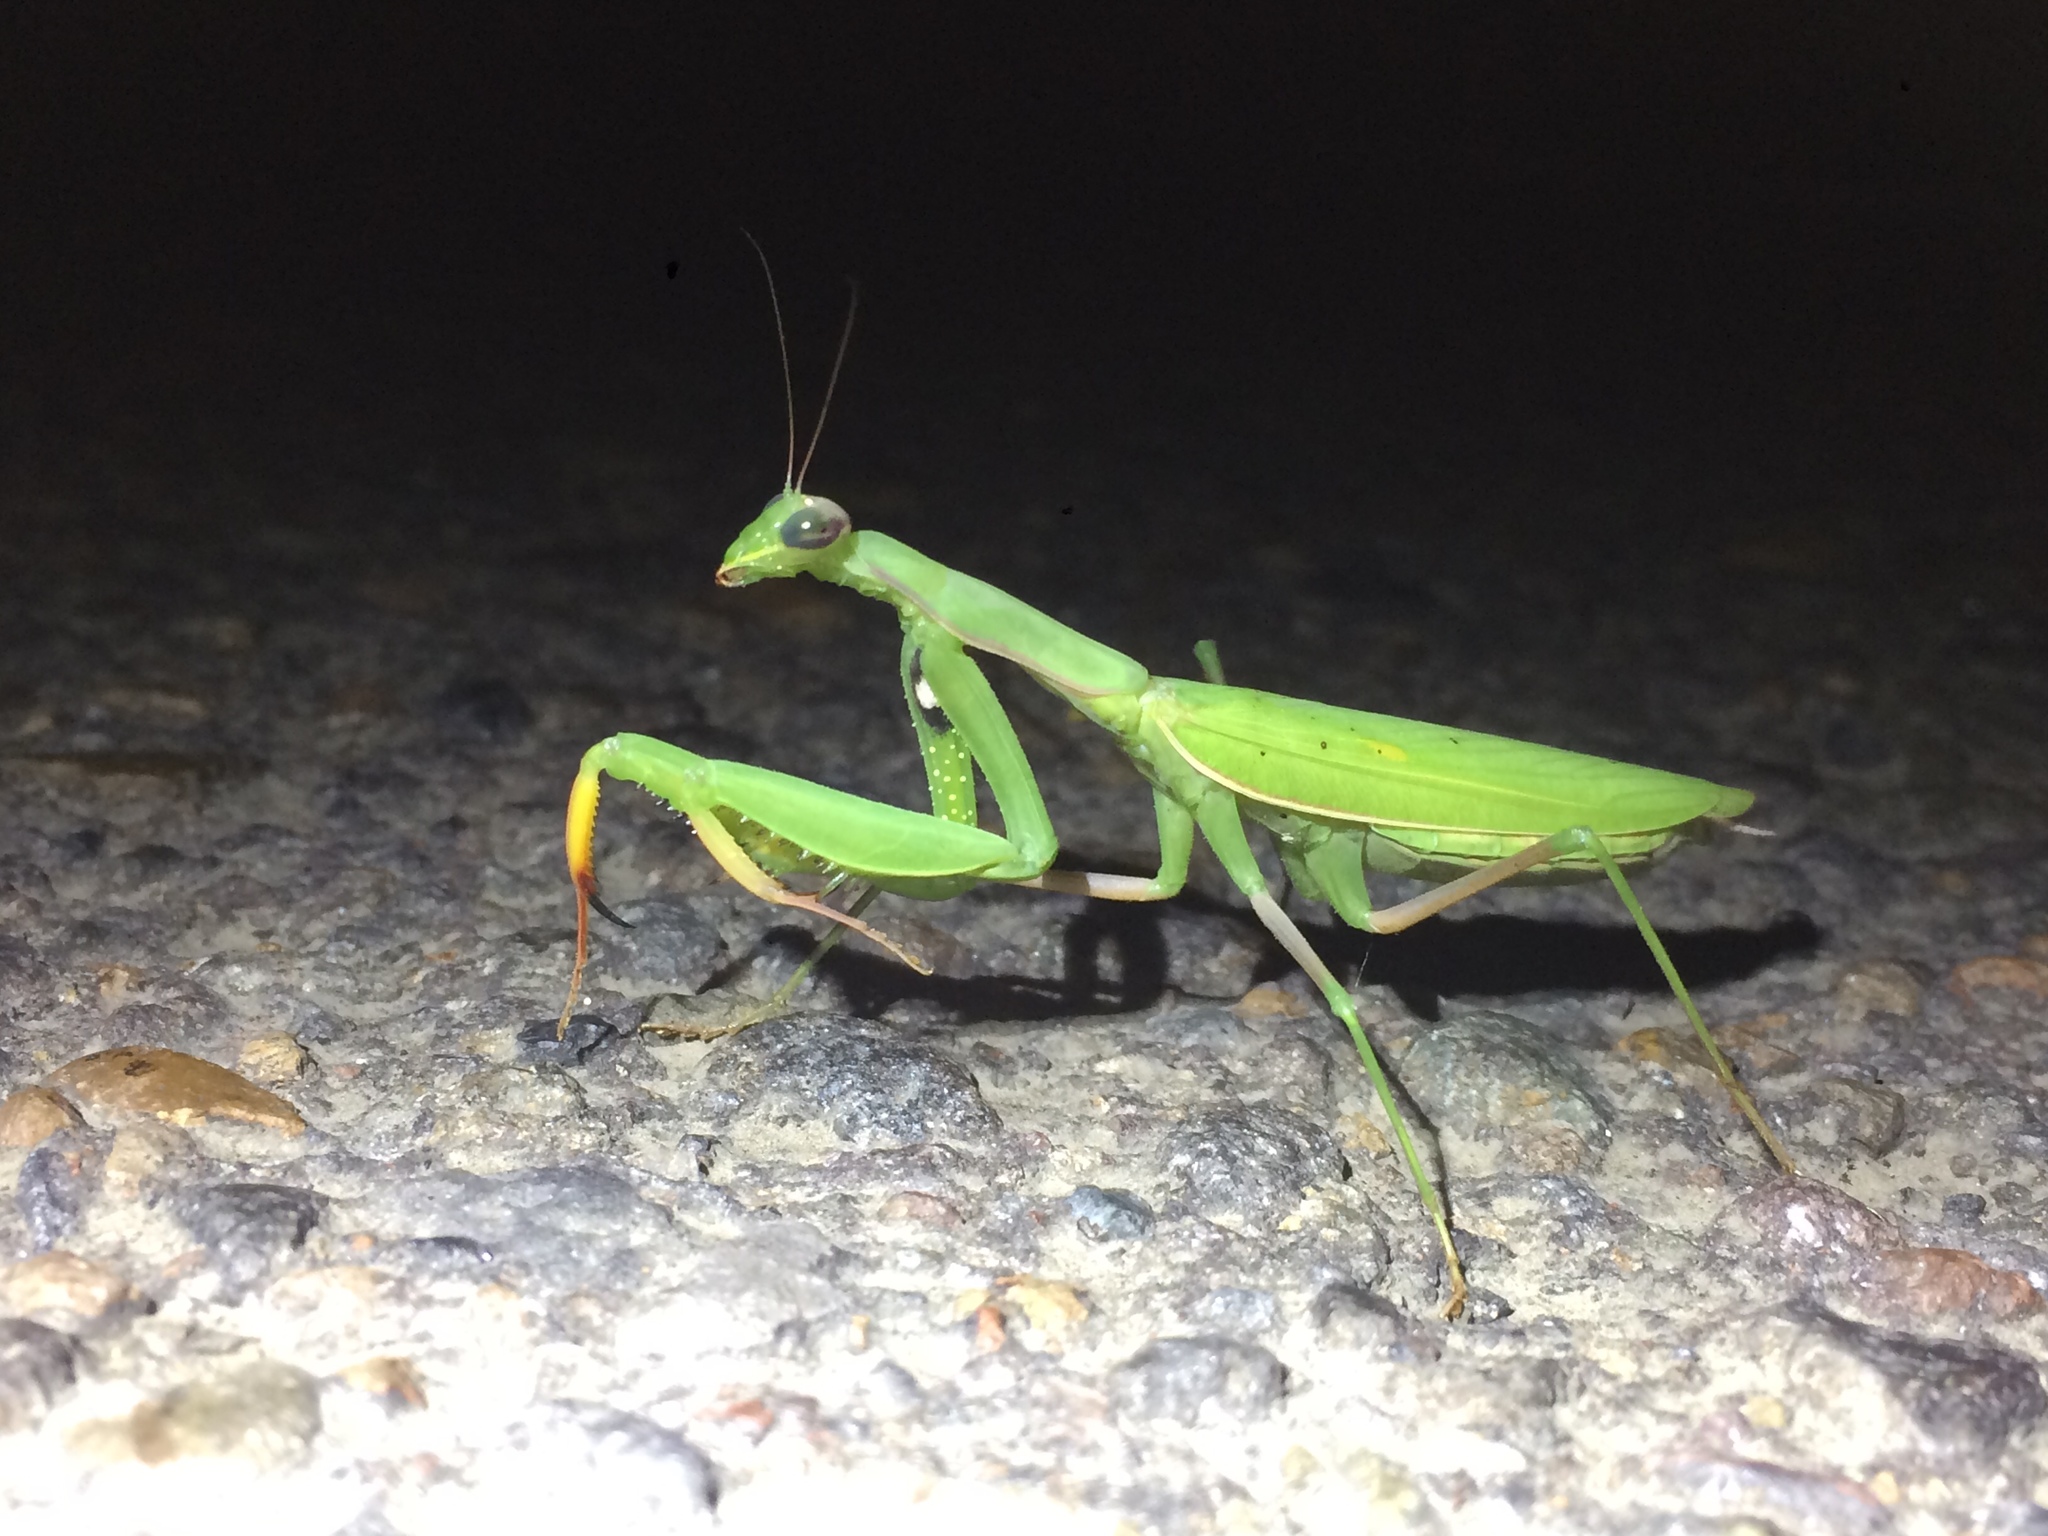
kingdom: Animalia
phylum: Arthropoda
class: Insecta
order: Mantodea
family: Mantidae
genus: Mantis
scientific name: Mantis religiosa
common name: Praying mantis
